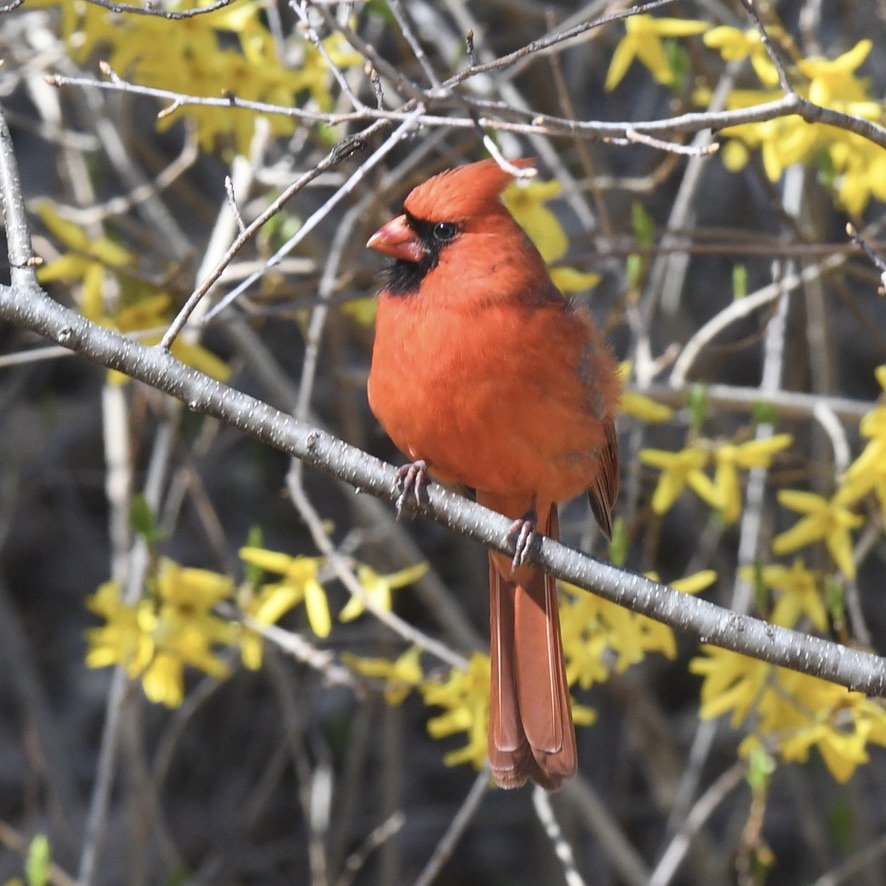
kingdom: Animalia
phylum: Chordata
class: Aves
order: Passeriformes
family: Cardinalidae
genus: Cardinalis
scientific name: Cardinalis cardinalis
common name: Northern cardinal
